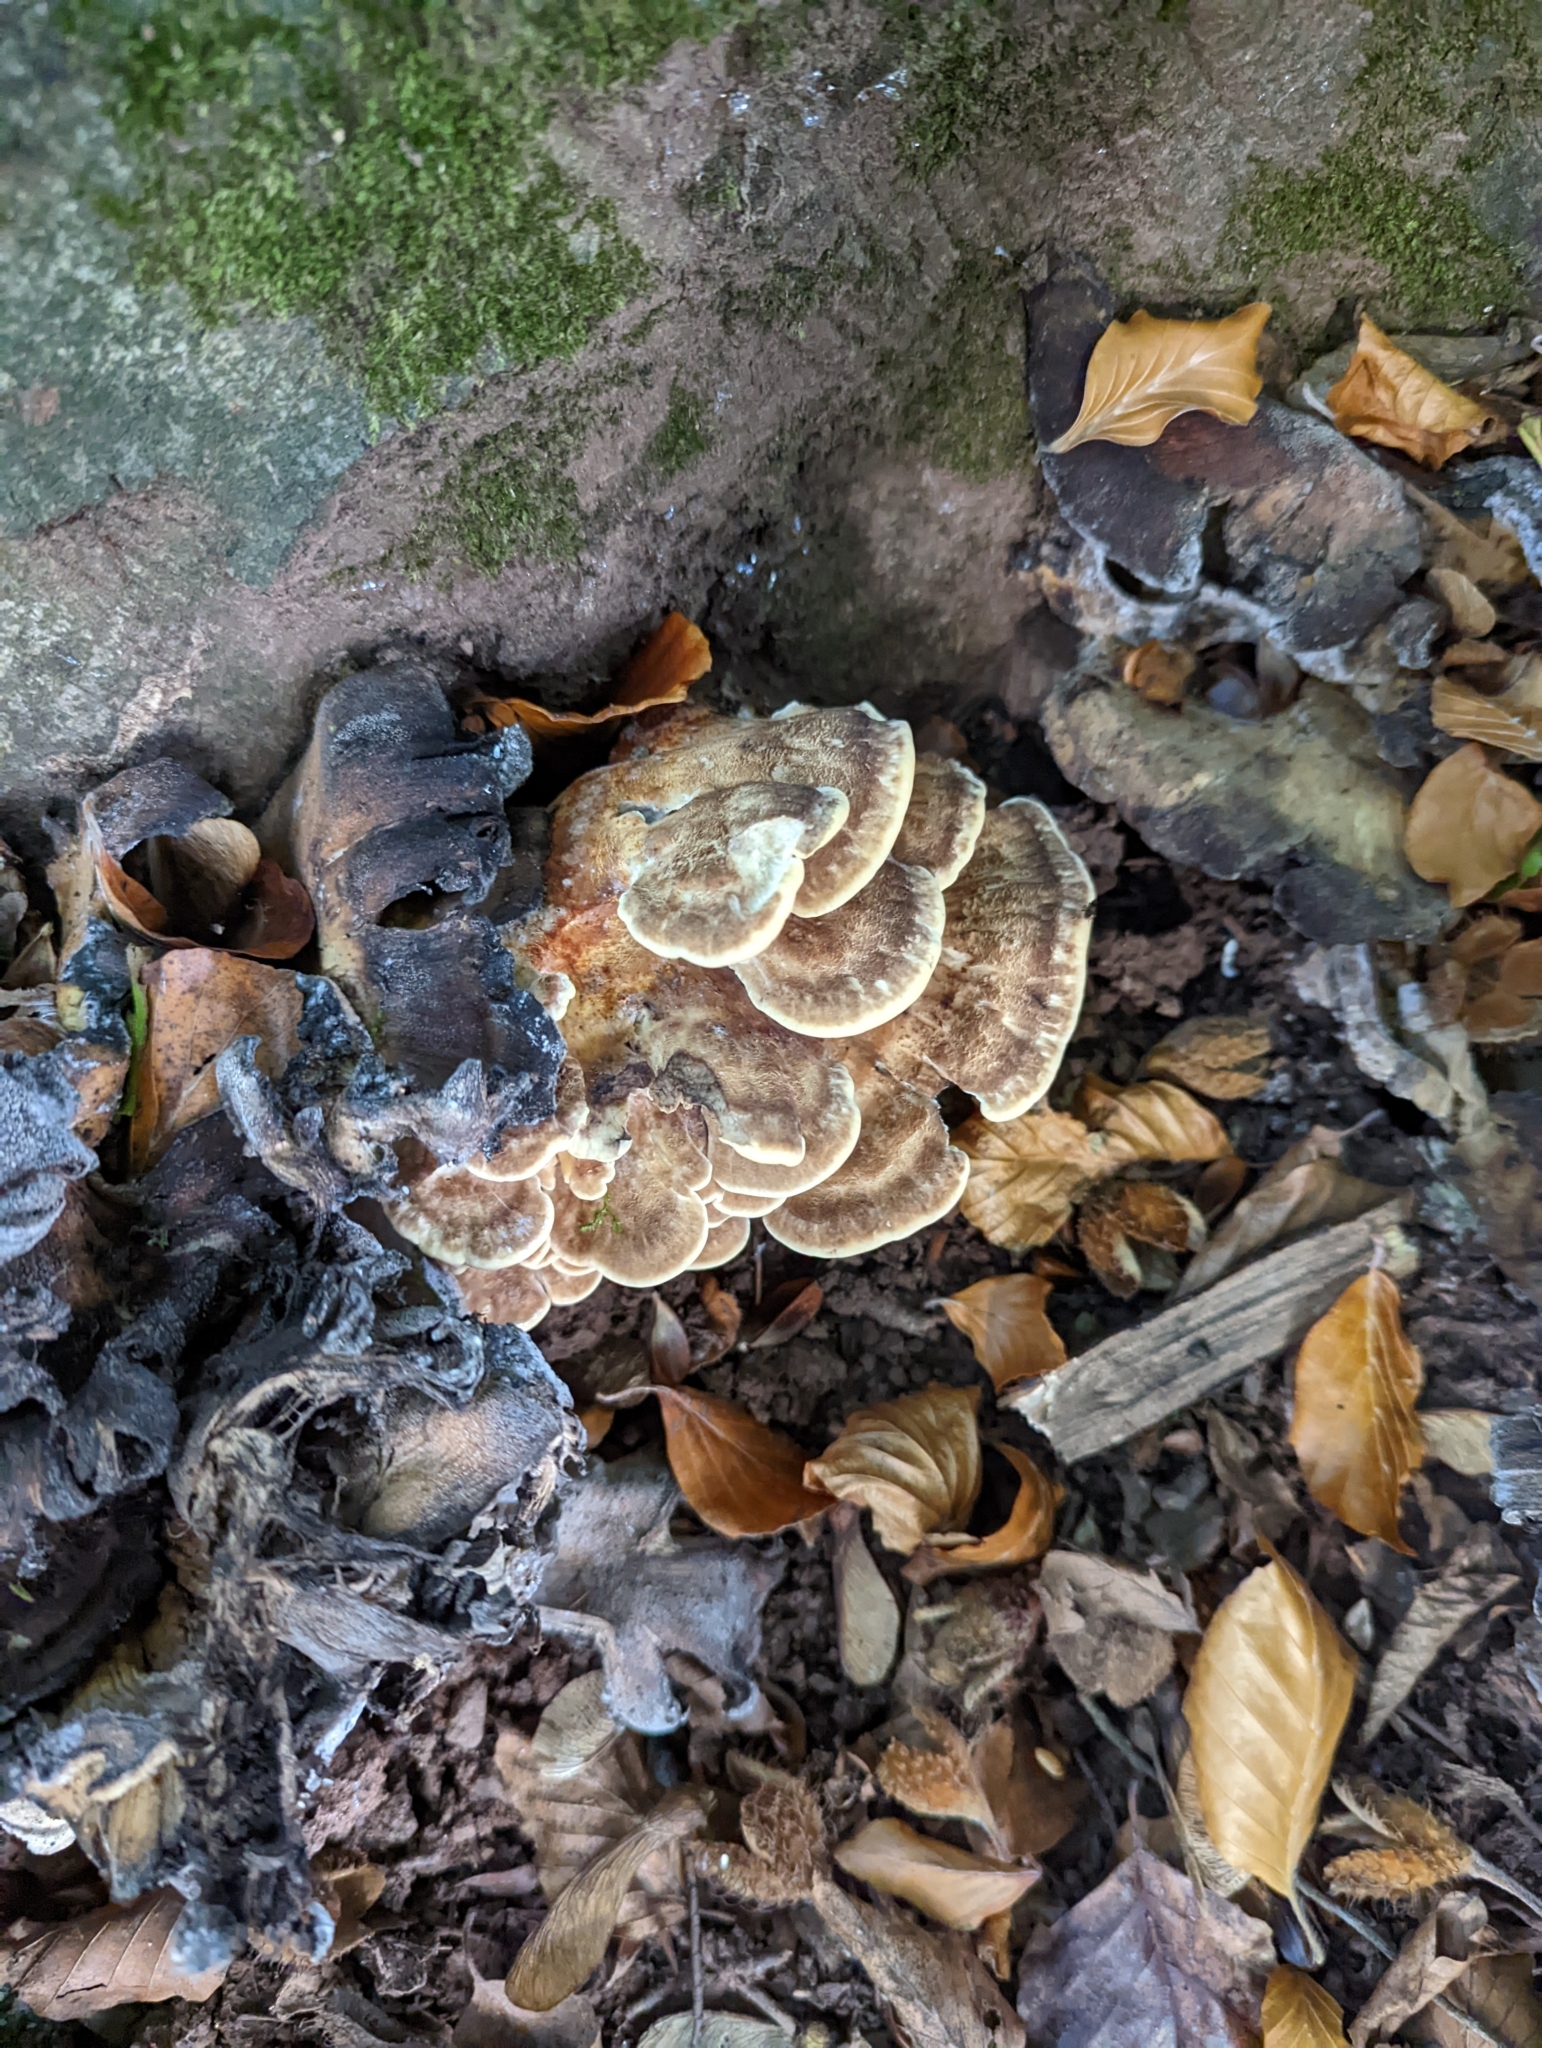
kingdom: Fungi
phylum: Basidiomycota
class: Agaricomycetes
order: Polyporales
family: Meripilaceae
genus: Meripilus
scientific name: Meripilus giganteus
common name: Giant polypore
